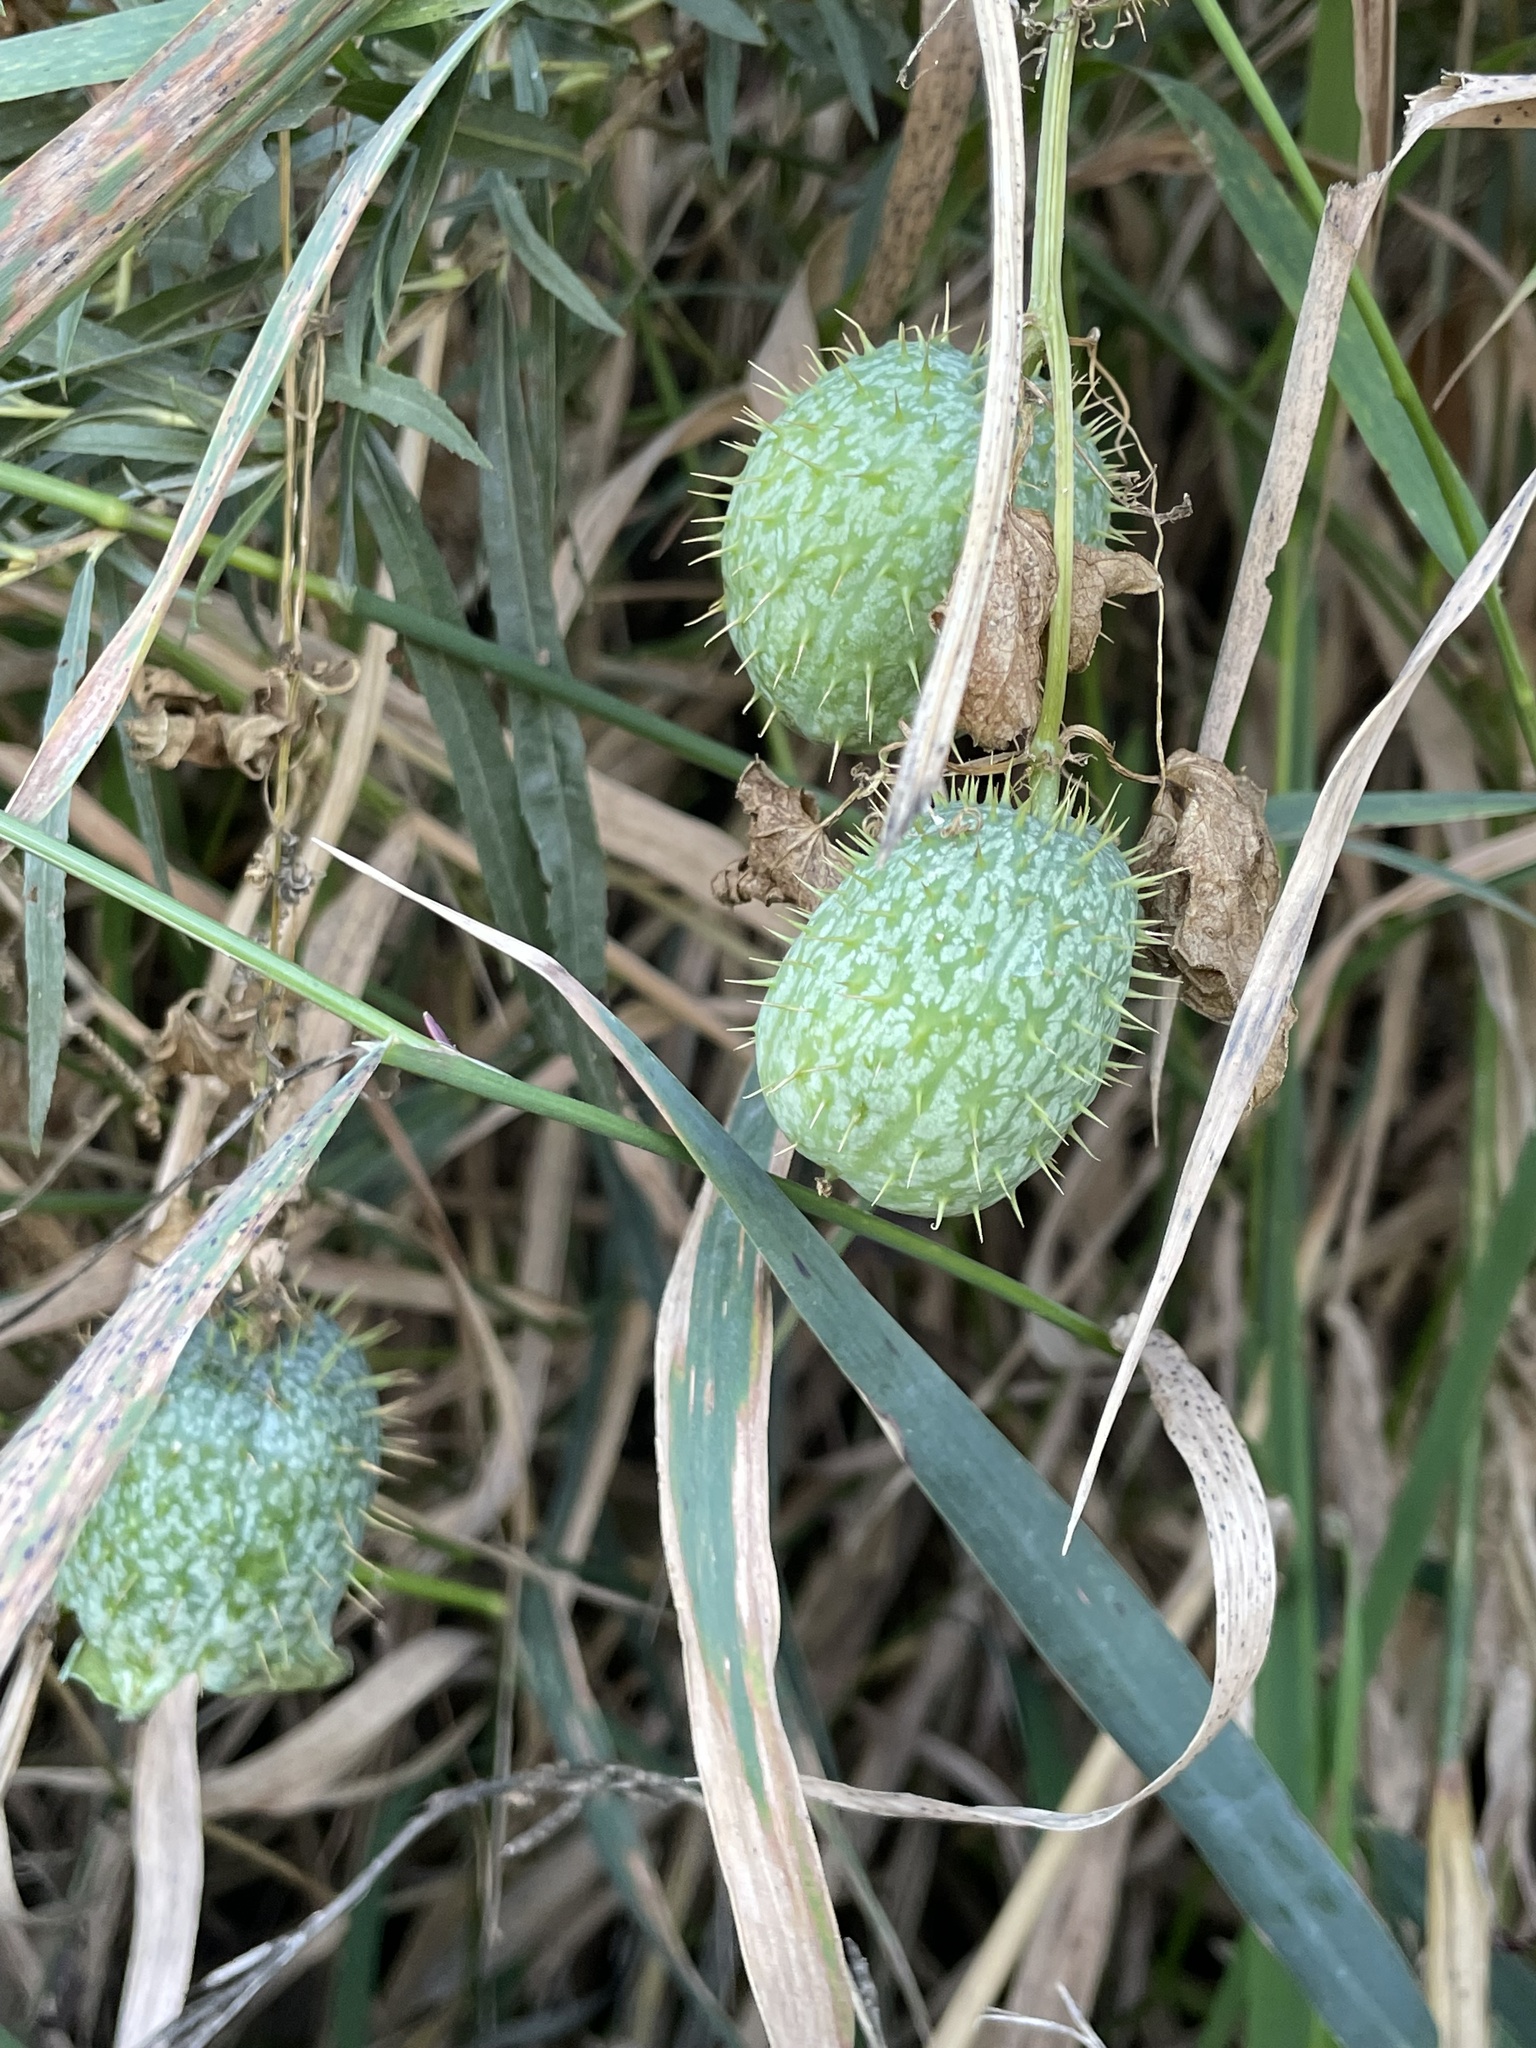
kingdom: Plantae
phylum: Tracheophyta
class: Magnoliopsida
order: Cucurbitales
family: Cucurbitaceae
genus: Echinocystis
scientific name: Echinocystis lobata
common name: Wild cucumber
